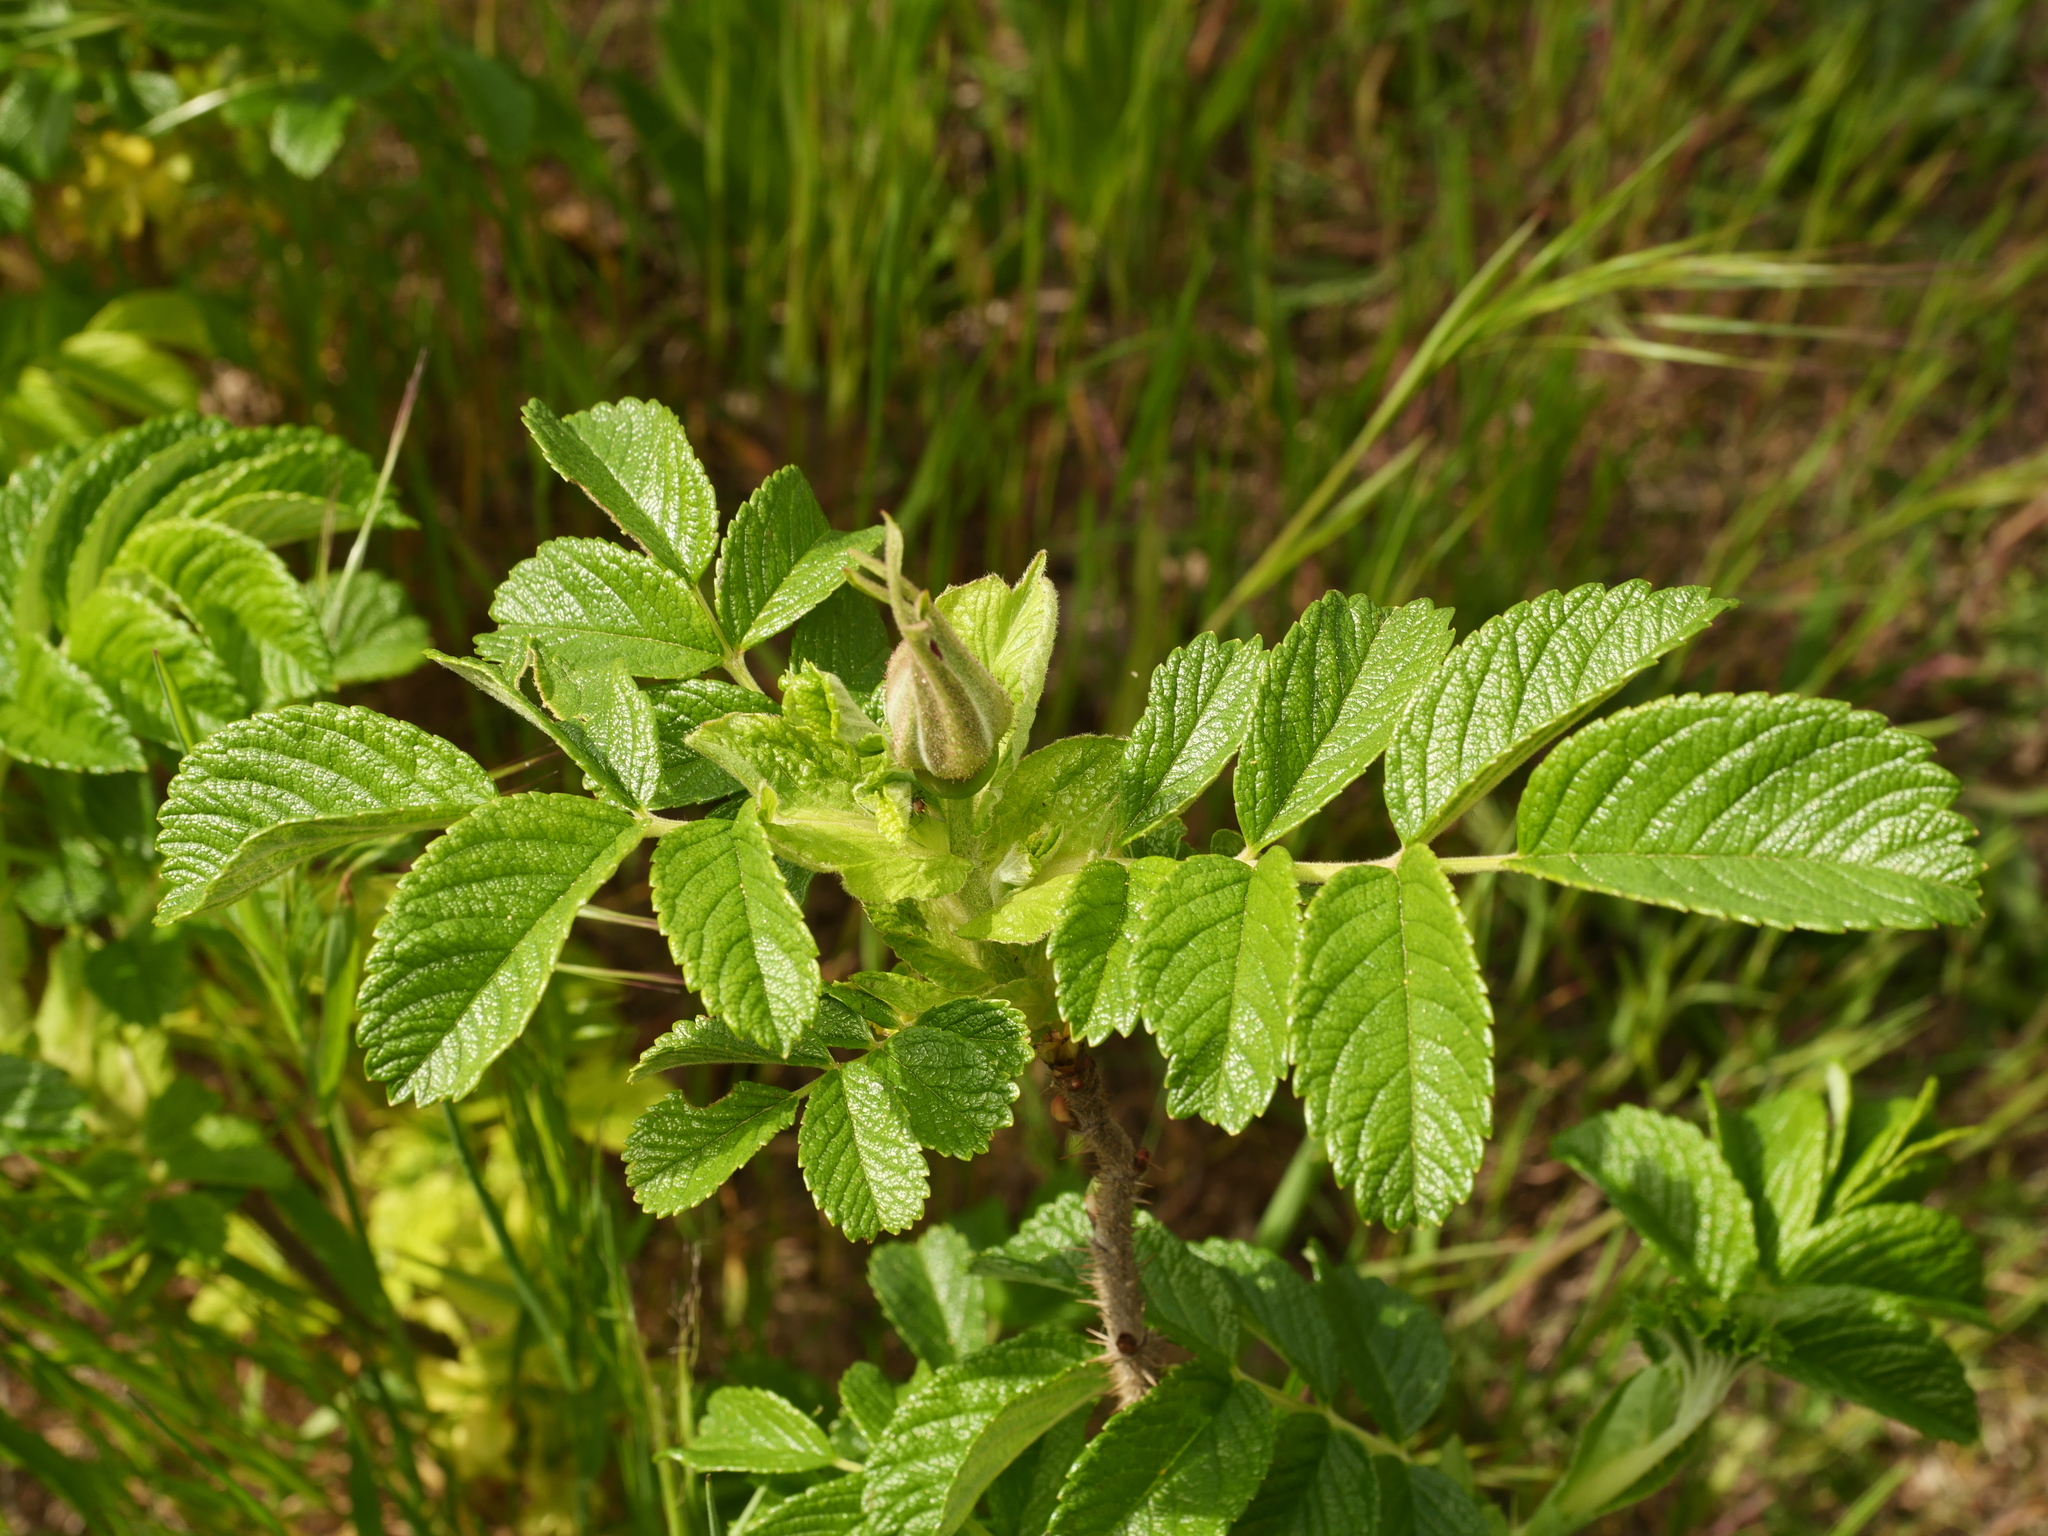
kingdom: Plantae
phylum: Tracheophyta
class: Magnoliopsida
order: Rosales
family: Rosaceae
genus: Rosa
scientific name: Rosa rugosa
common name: Japanese rose
